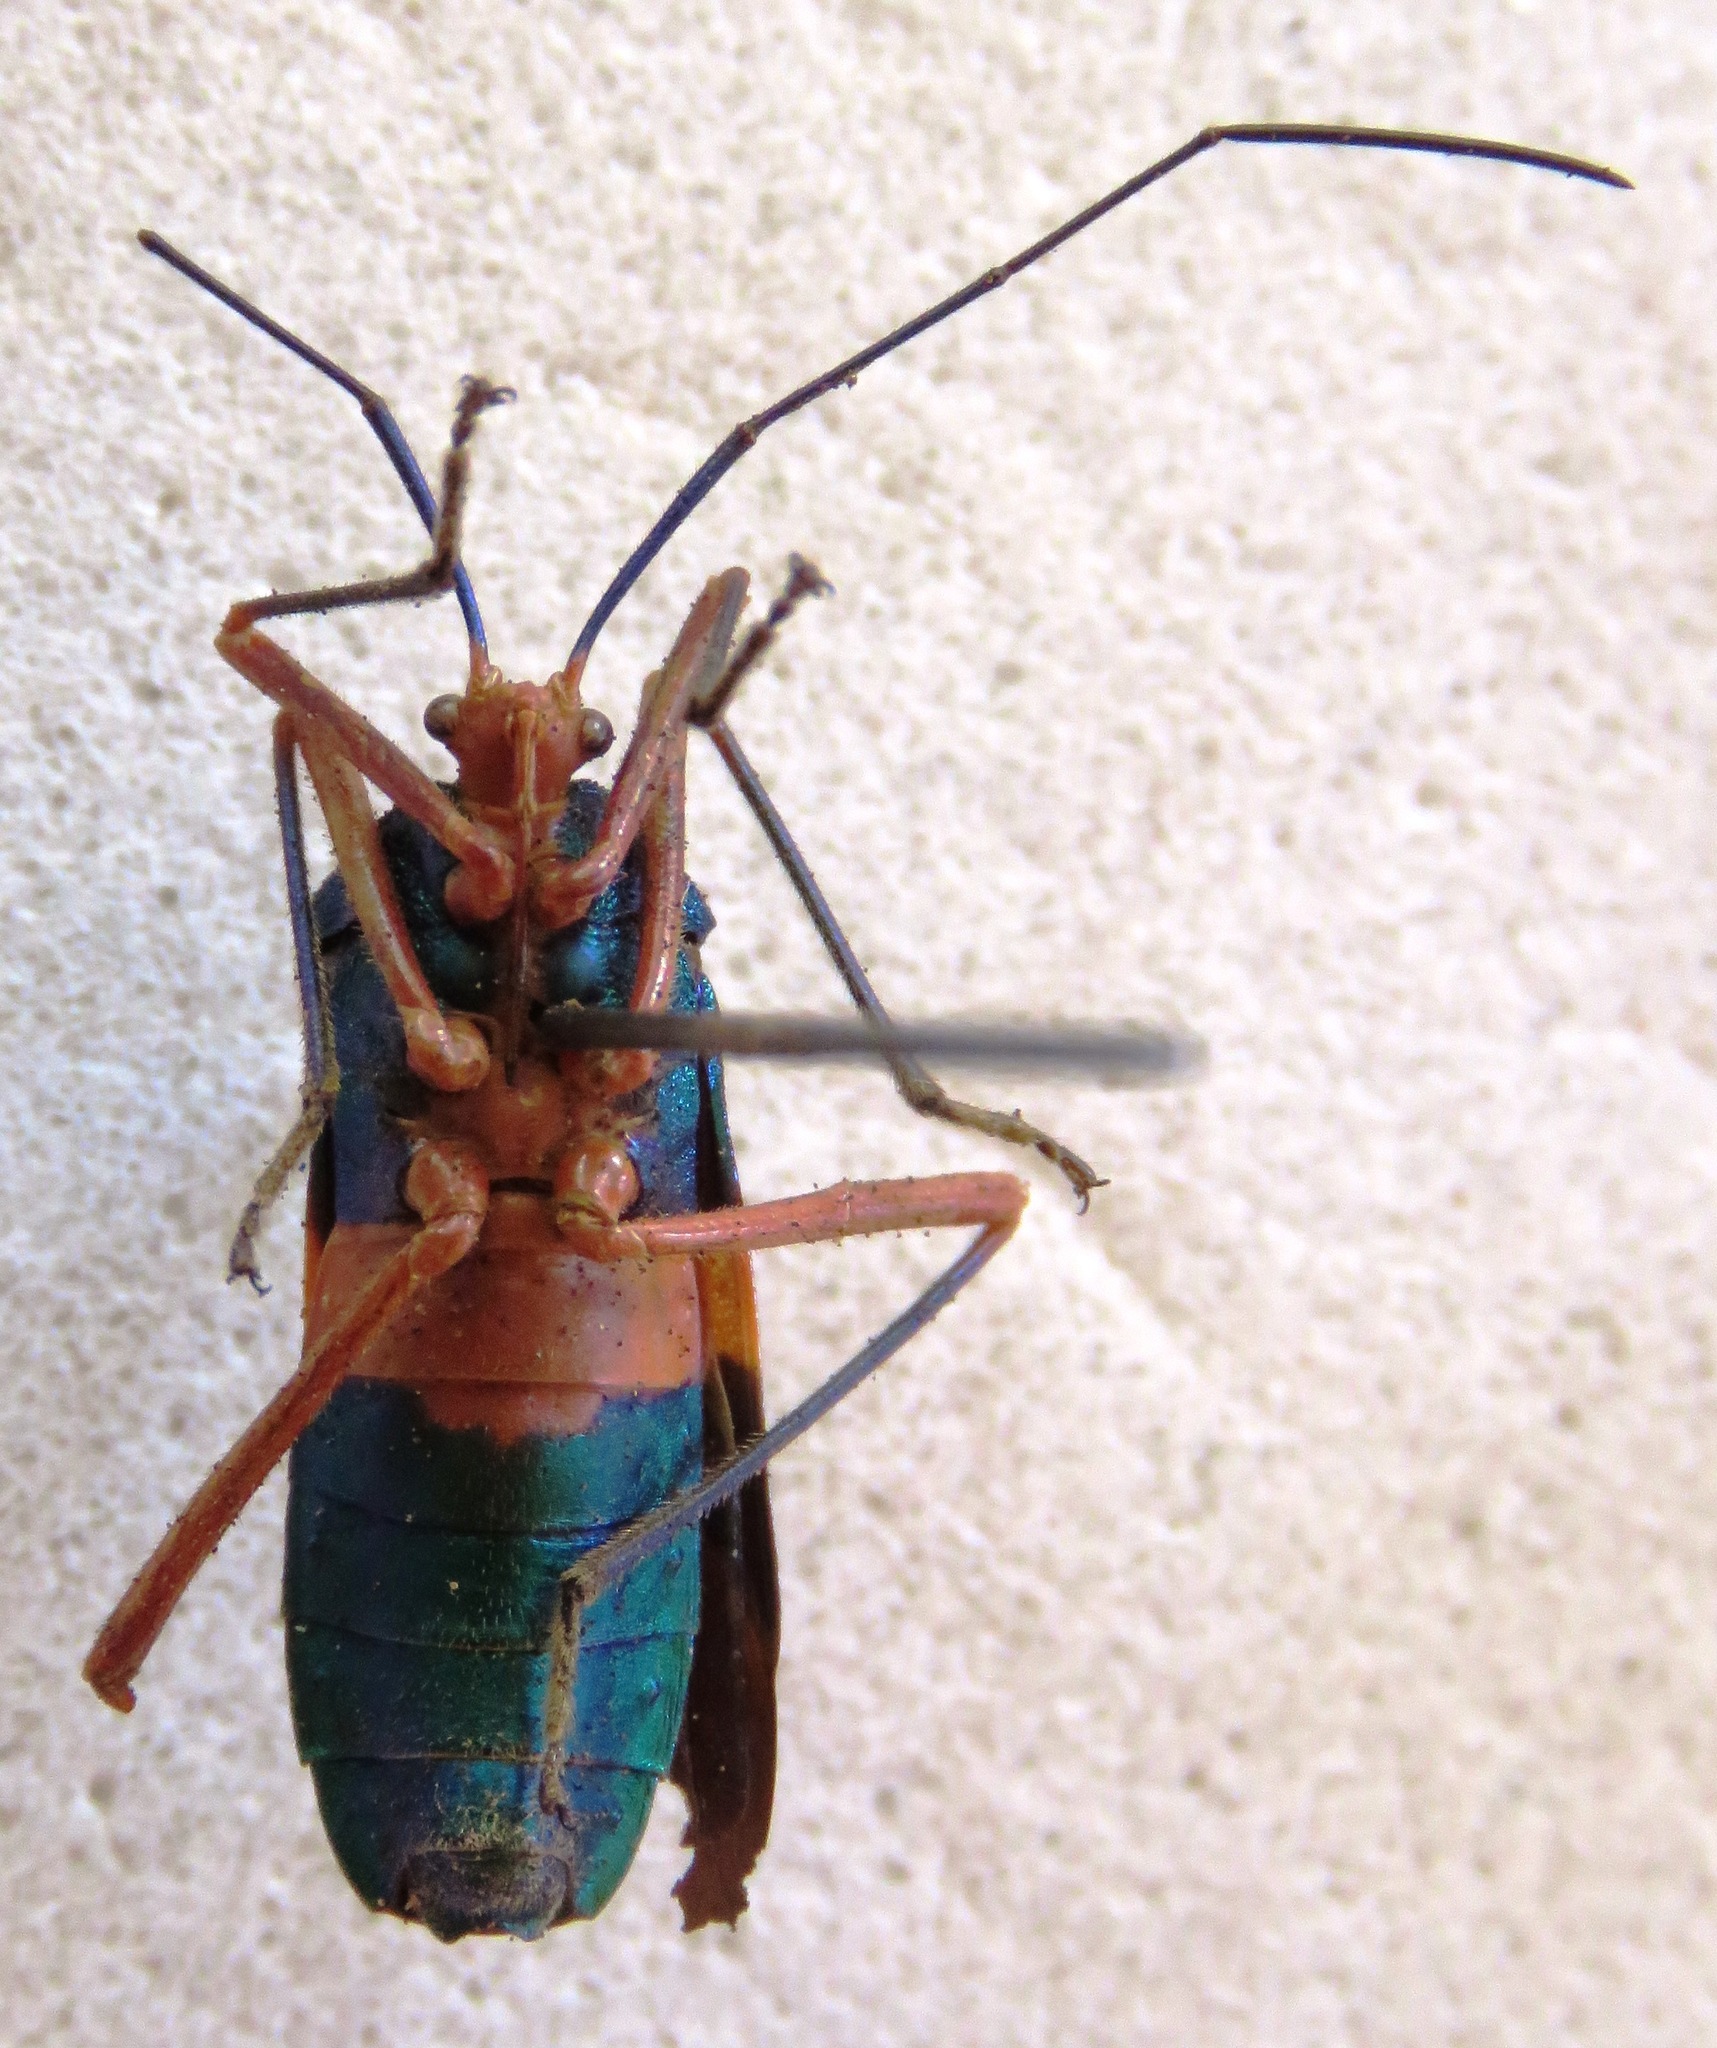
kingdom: Animalia
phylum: Arthropoda
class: Insecta
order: Hemiptera
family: Coreidae
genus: Paryphes
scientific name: Paryphes blandus
